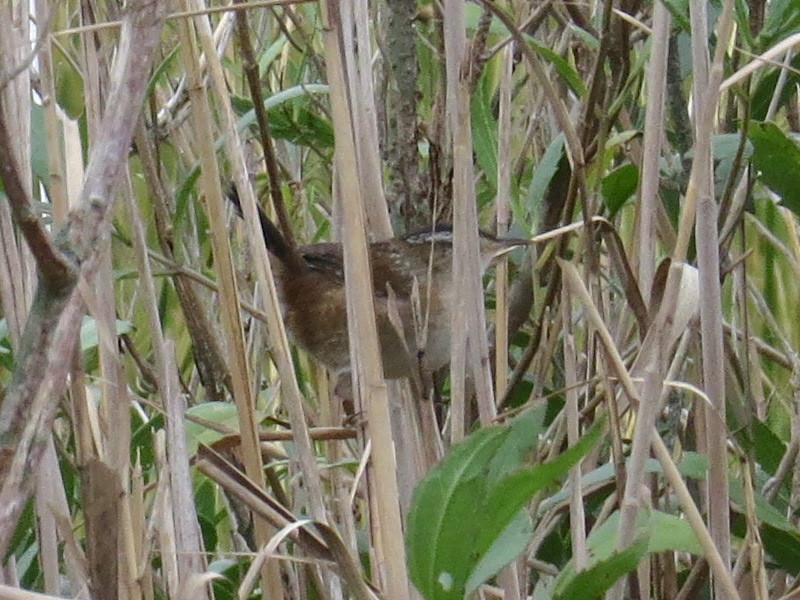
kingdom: Animalia
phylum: Chordata
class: Aves
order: Passeriformes
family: Troglodytidae
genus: Cistothorus
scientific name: Cistothorus palustris
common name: Marsh wren
